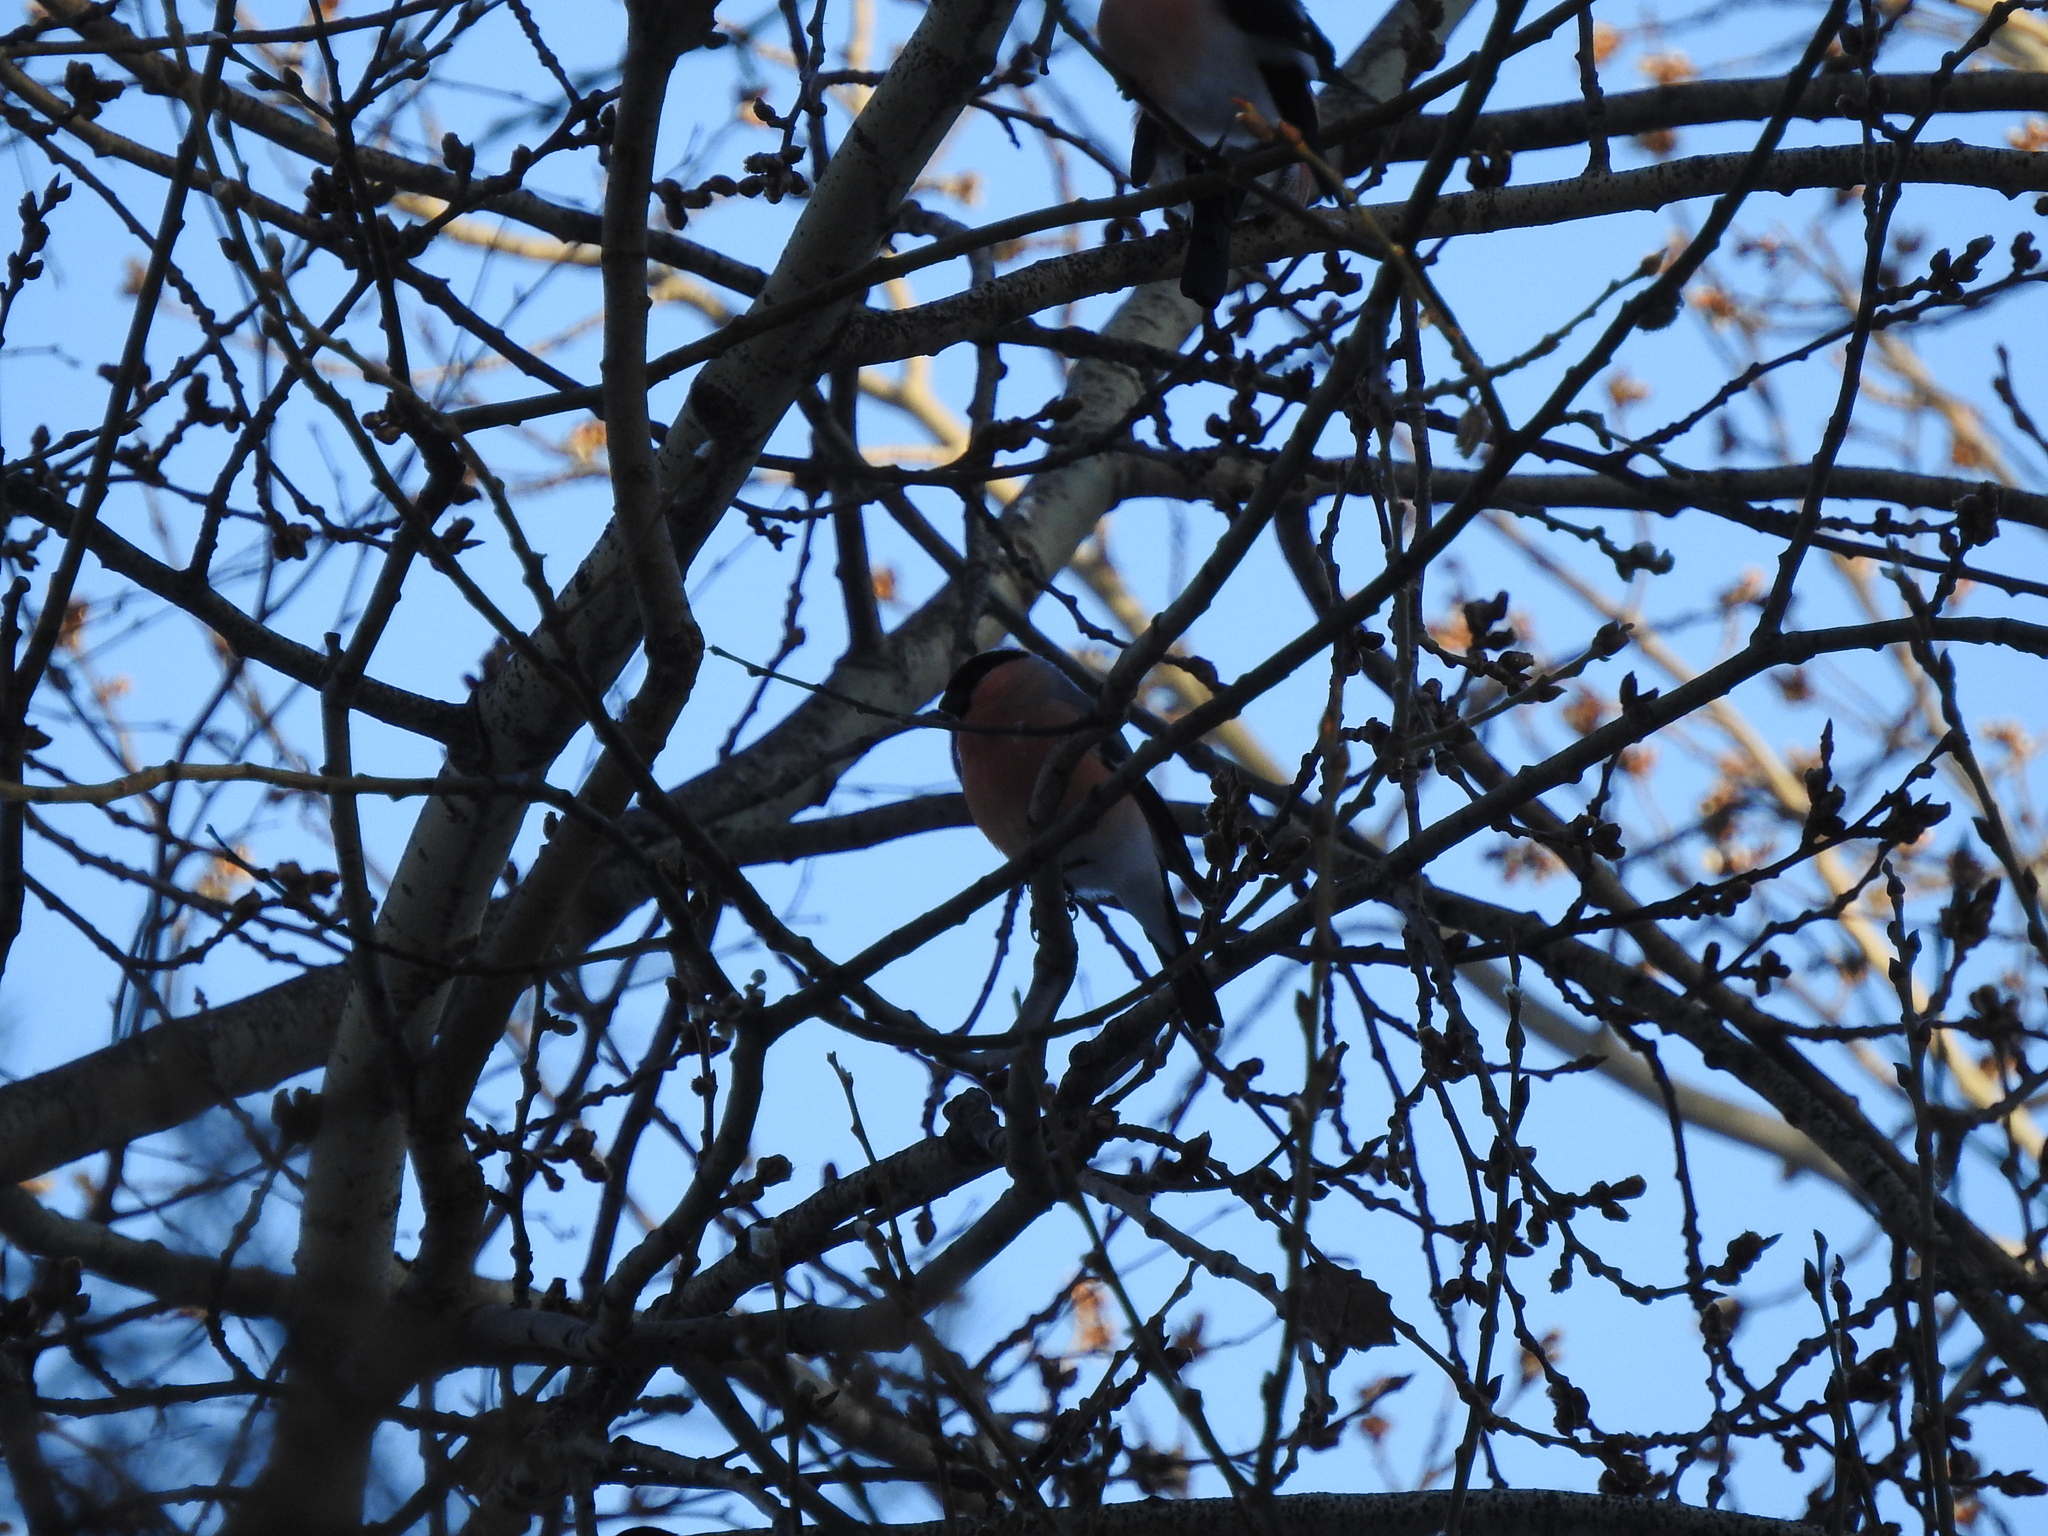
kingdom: Animalia
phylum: Chordata
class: Aves
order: Passeriformes
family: Fringillidae
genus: Pyrrhula
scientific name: Pyrrhula pyrrhula
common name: Eurasian bullfinch
